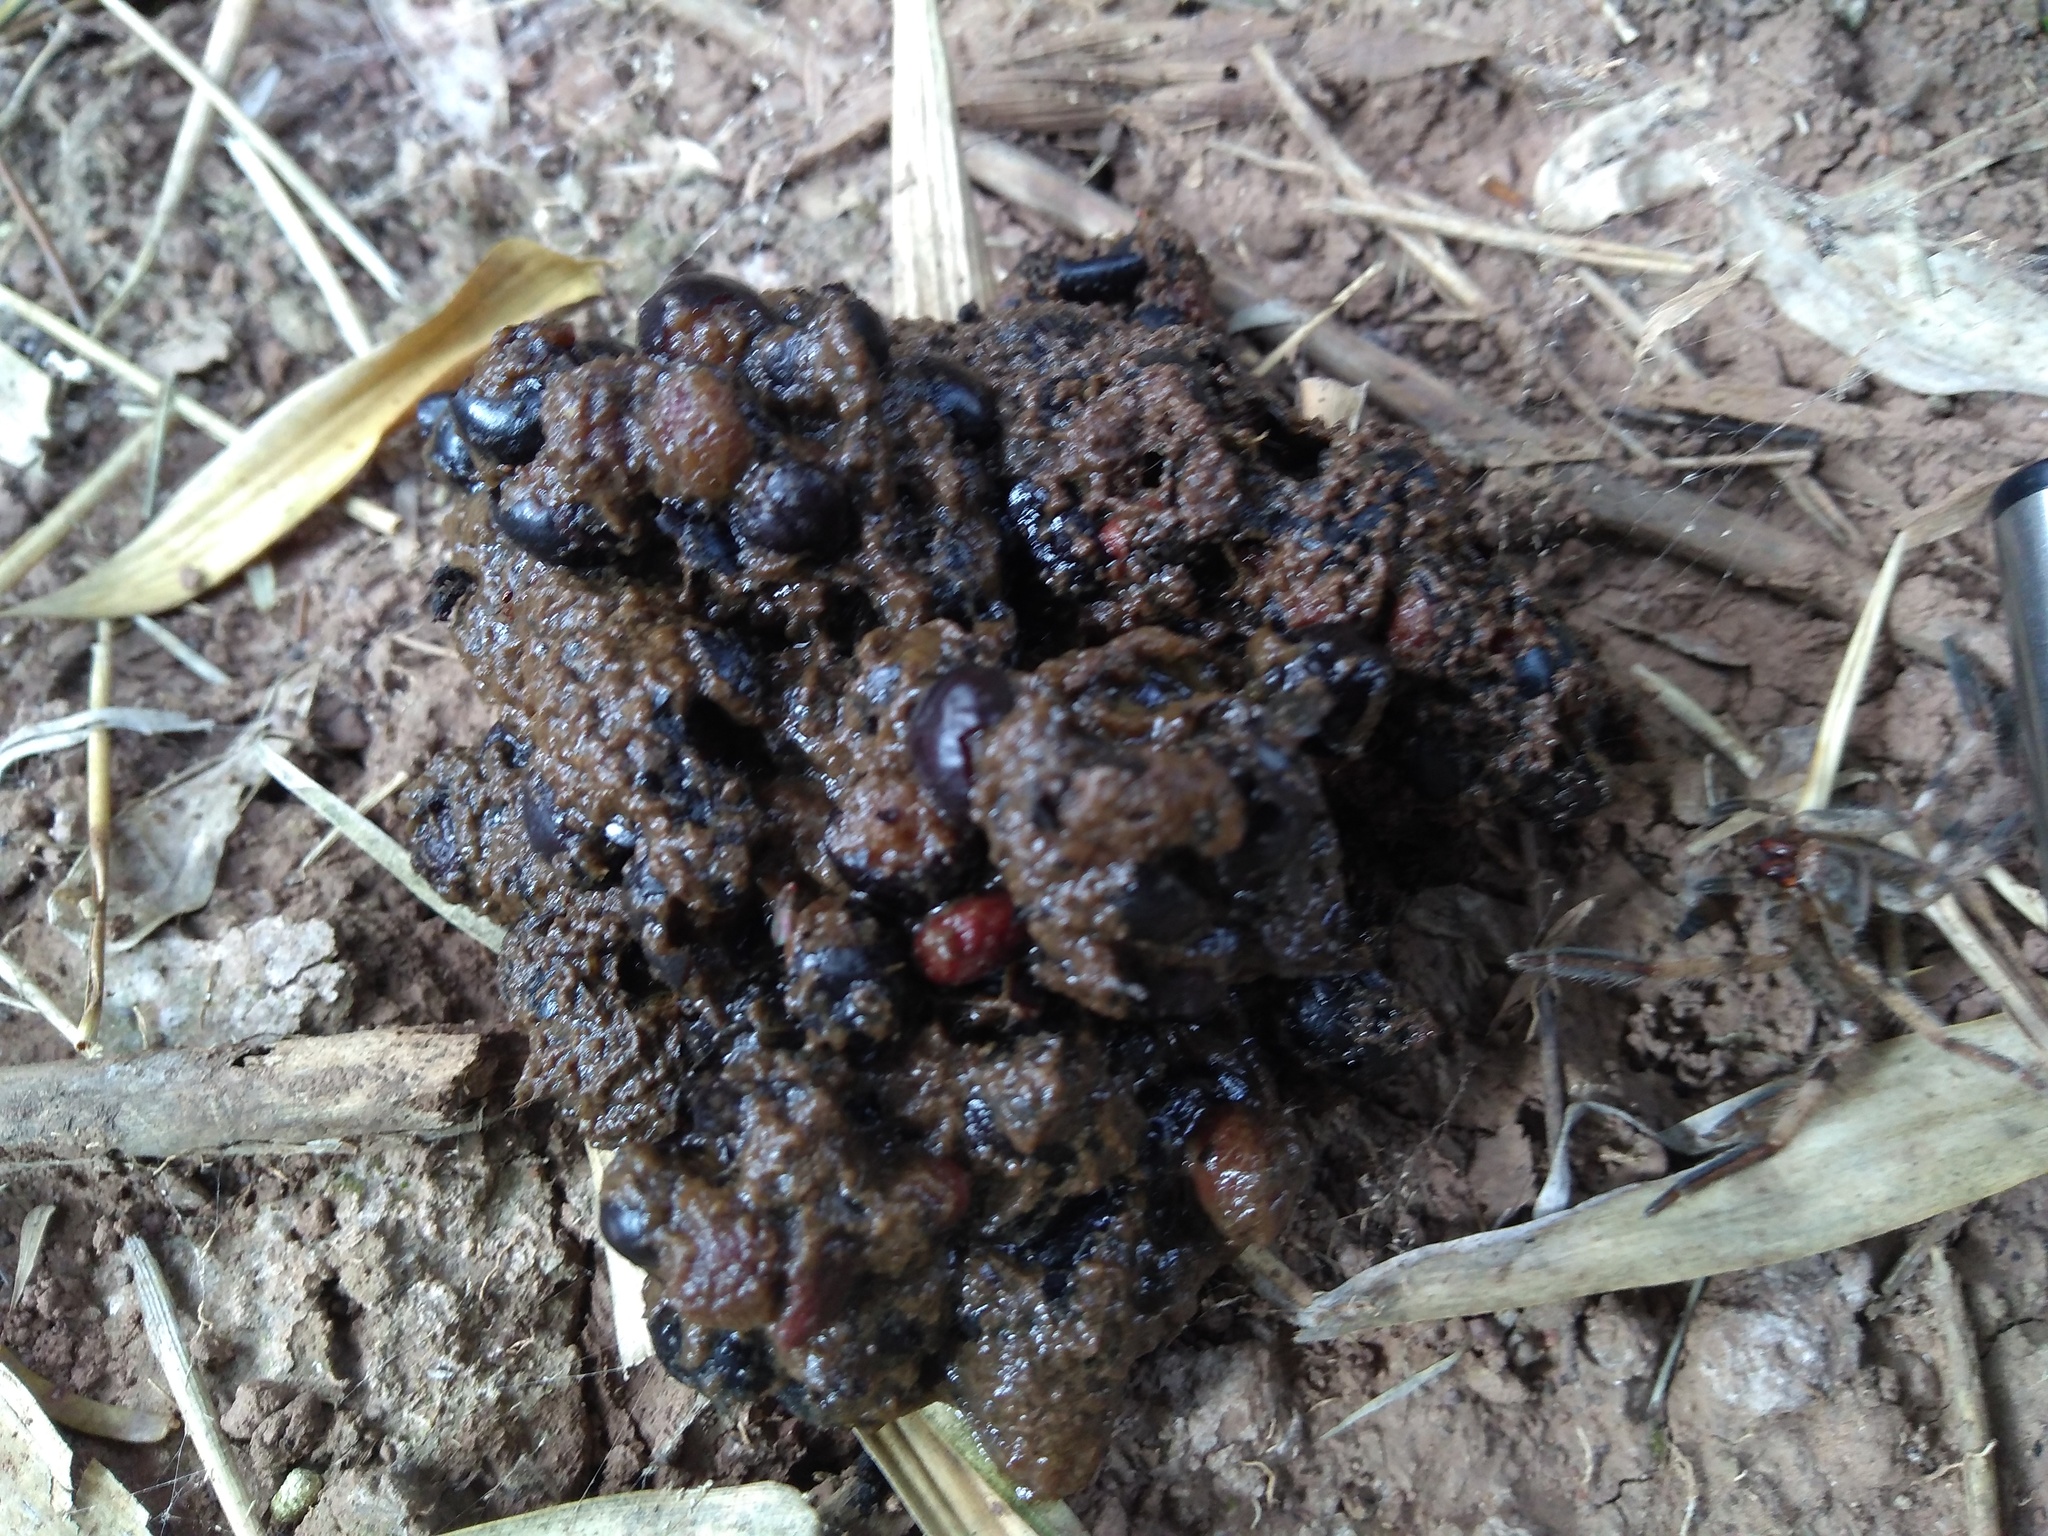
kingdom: Animalia
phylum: Chordata
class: Mammalia
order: Rodentia
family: Hystricidae
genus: Hystrix
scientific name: Hystrix indica
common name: Indian crested porcupine
